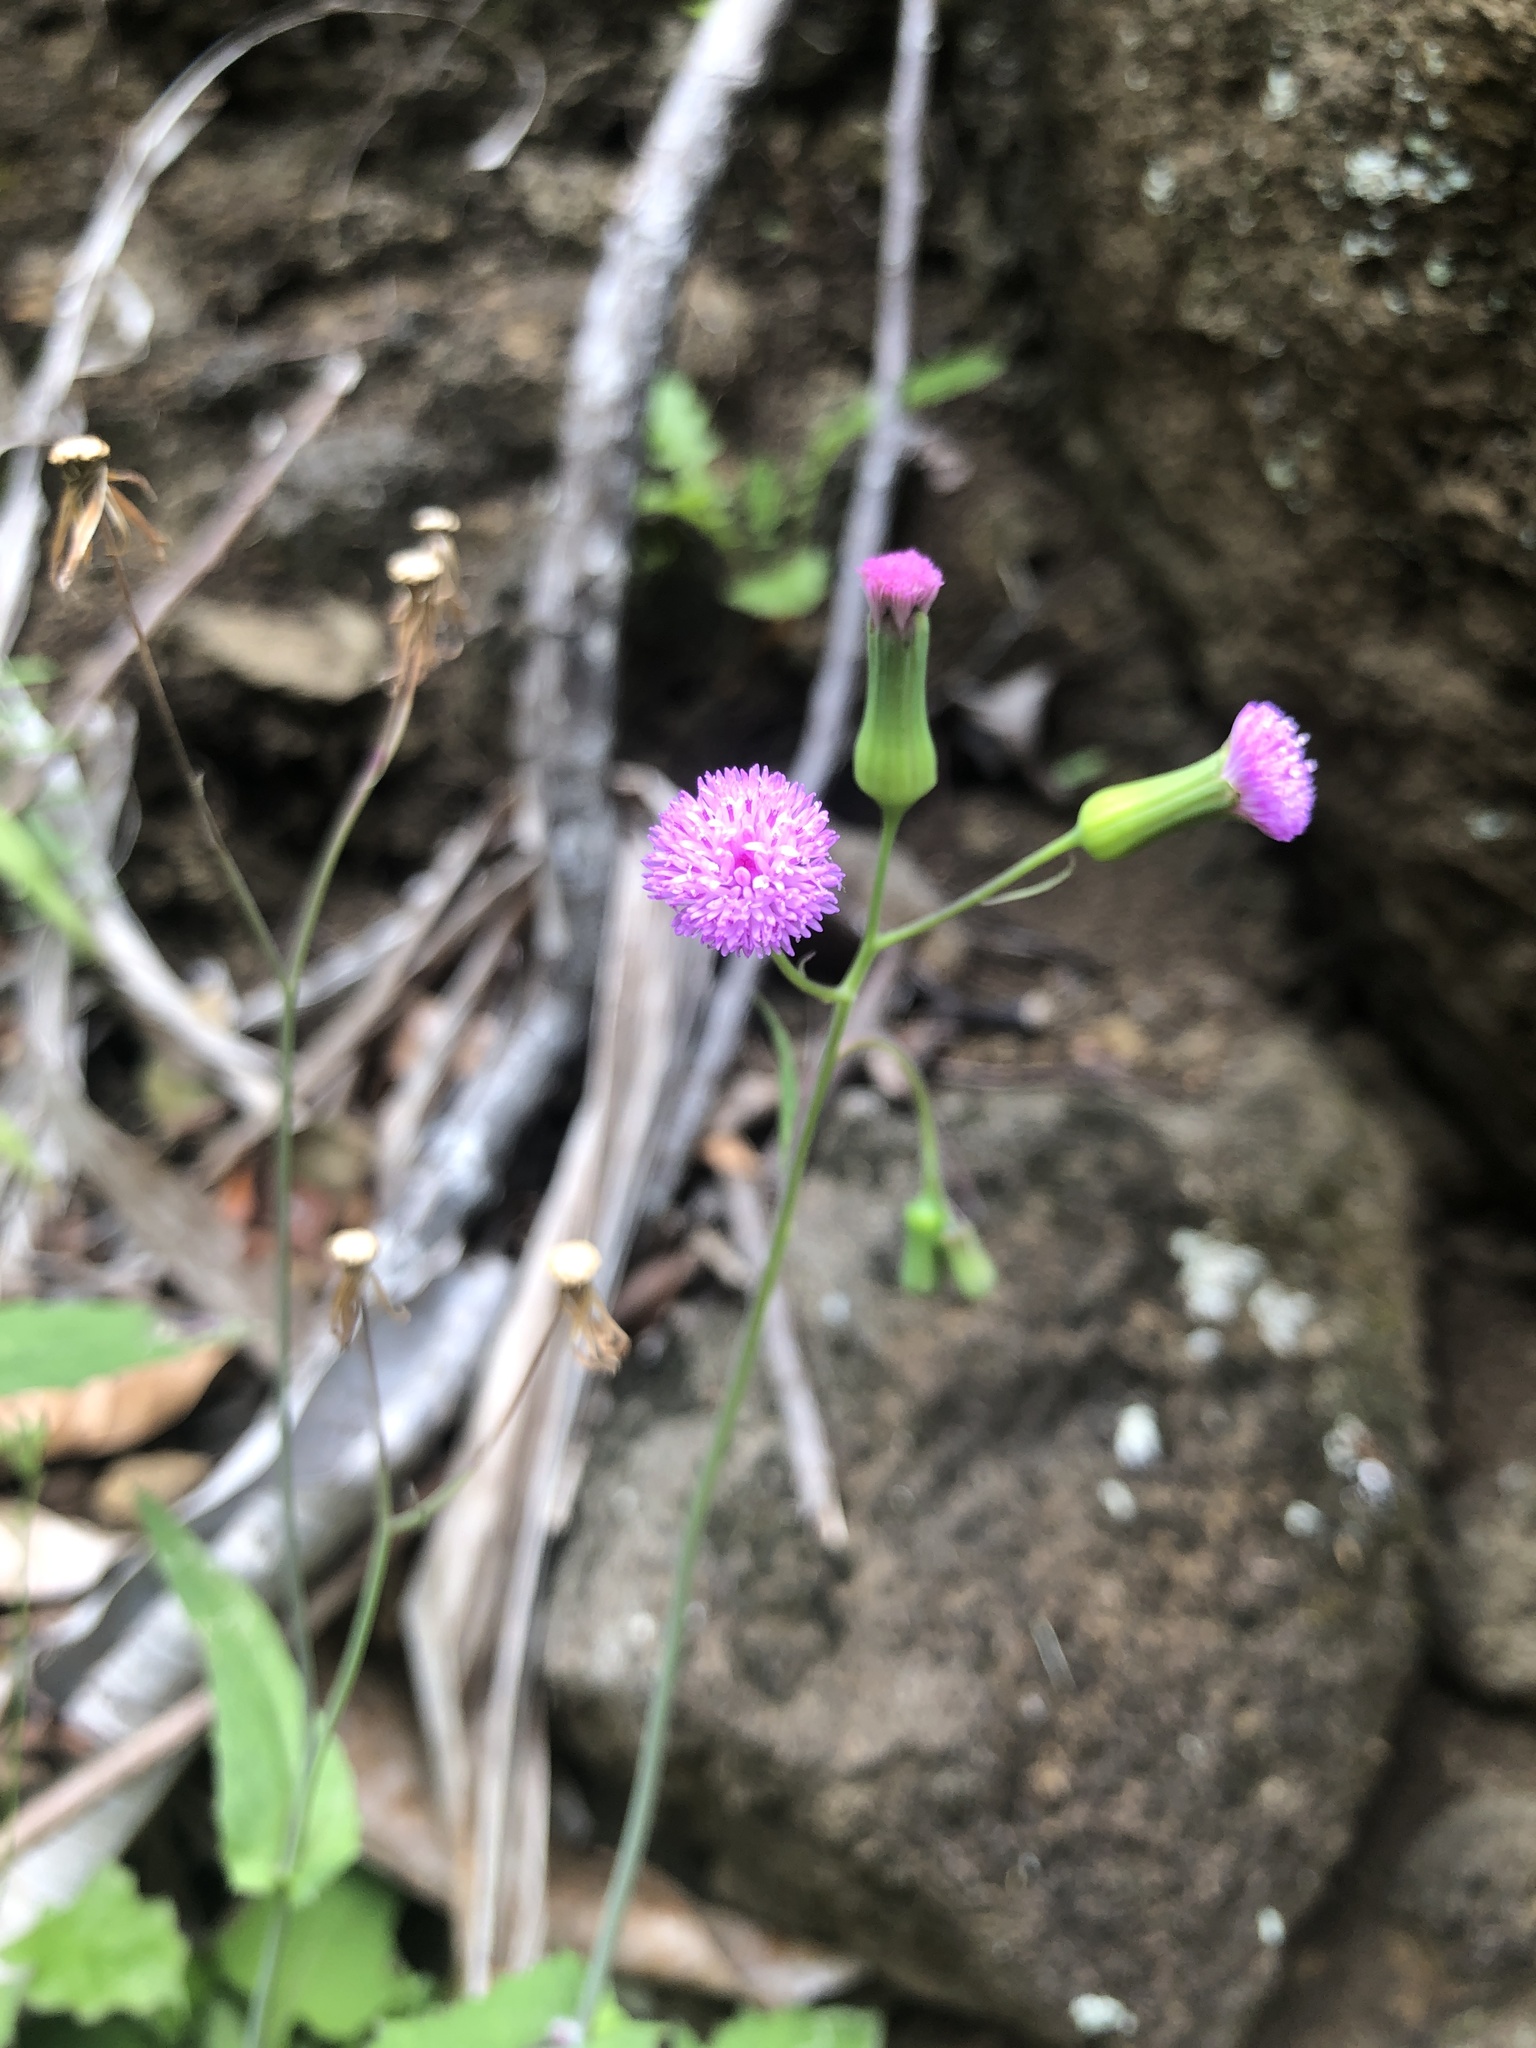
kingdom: Plantae
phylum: Tracheophyta
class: Magnoliopsida
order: Asterales
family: Asteraceae
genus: Emilia
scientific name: Emilia sonchifolia
